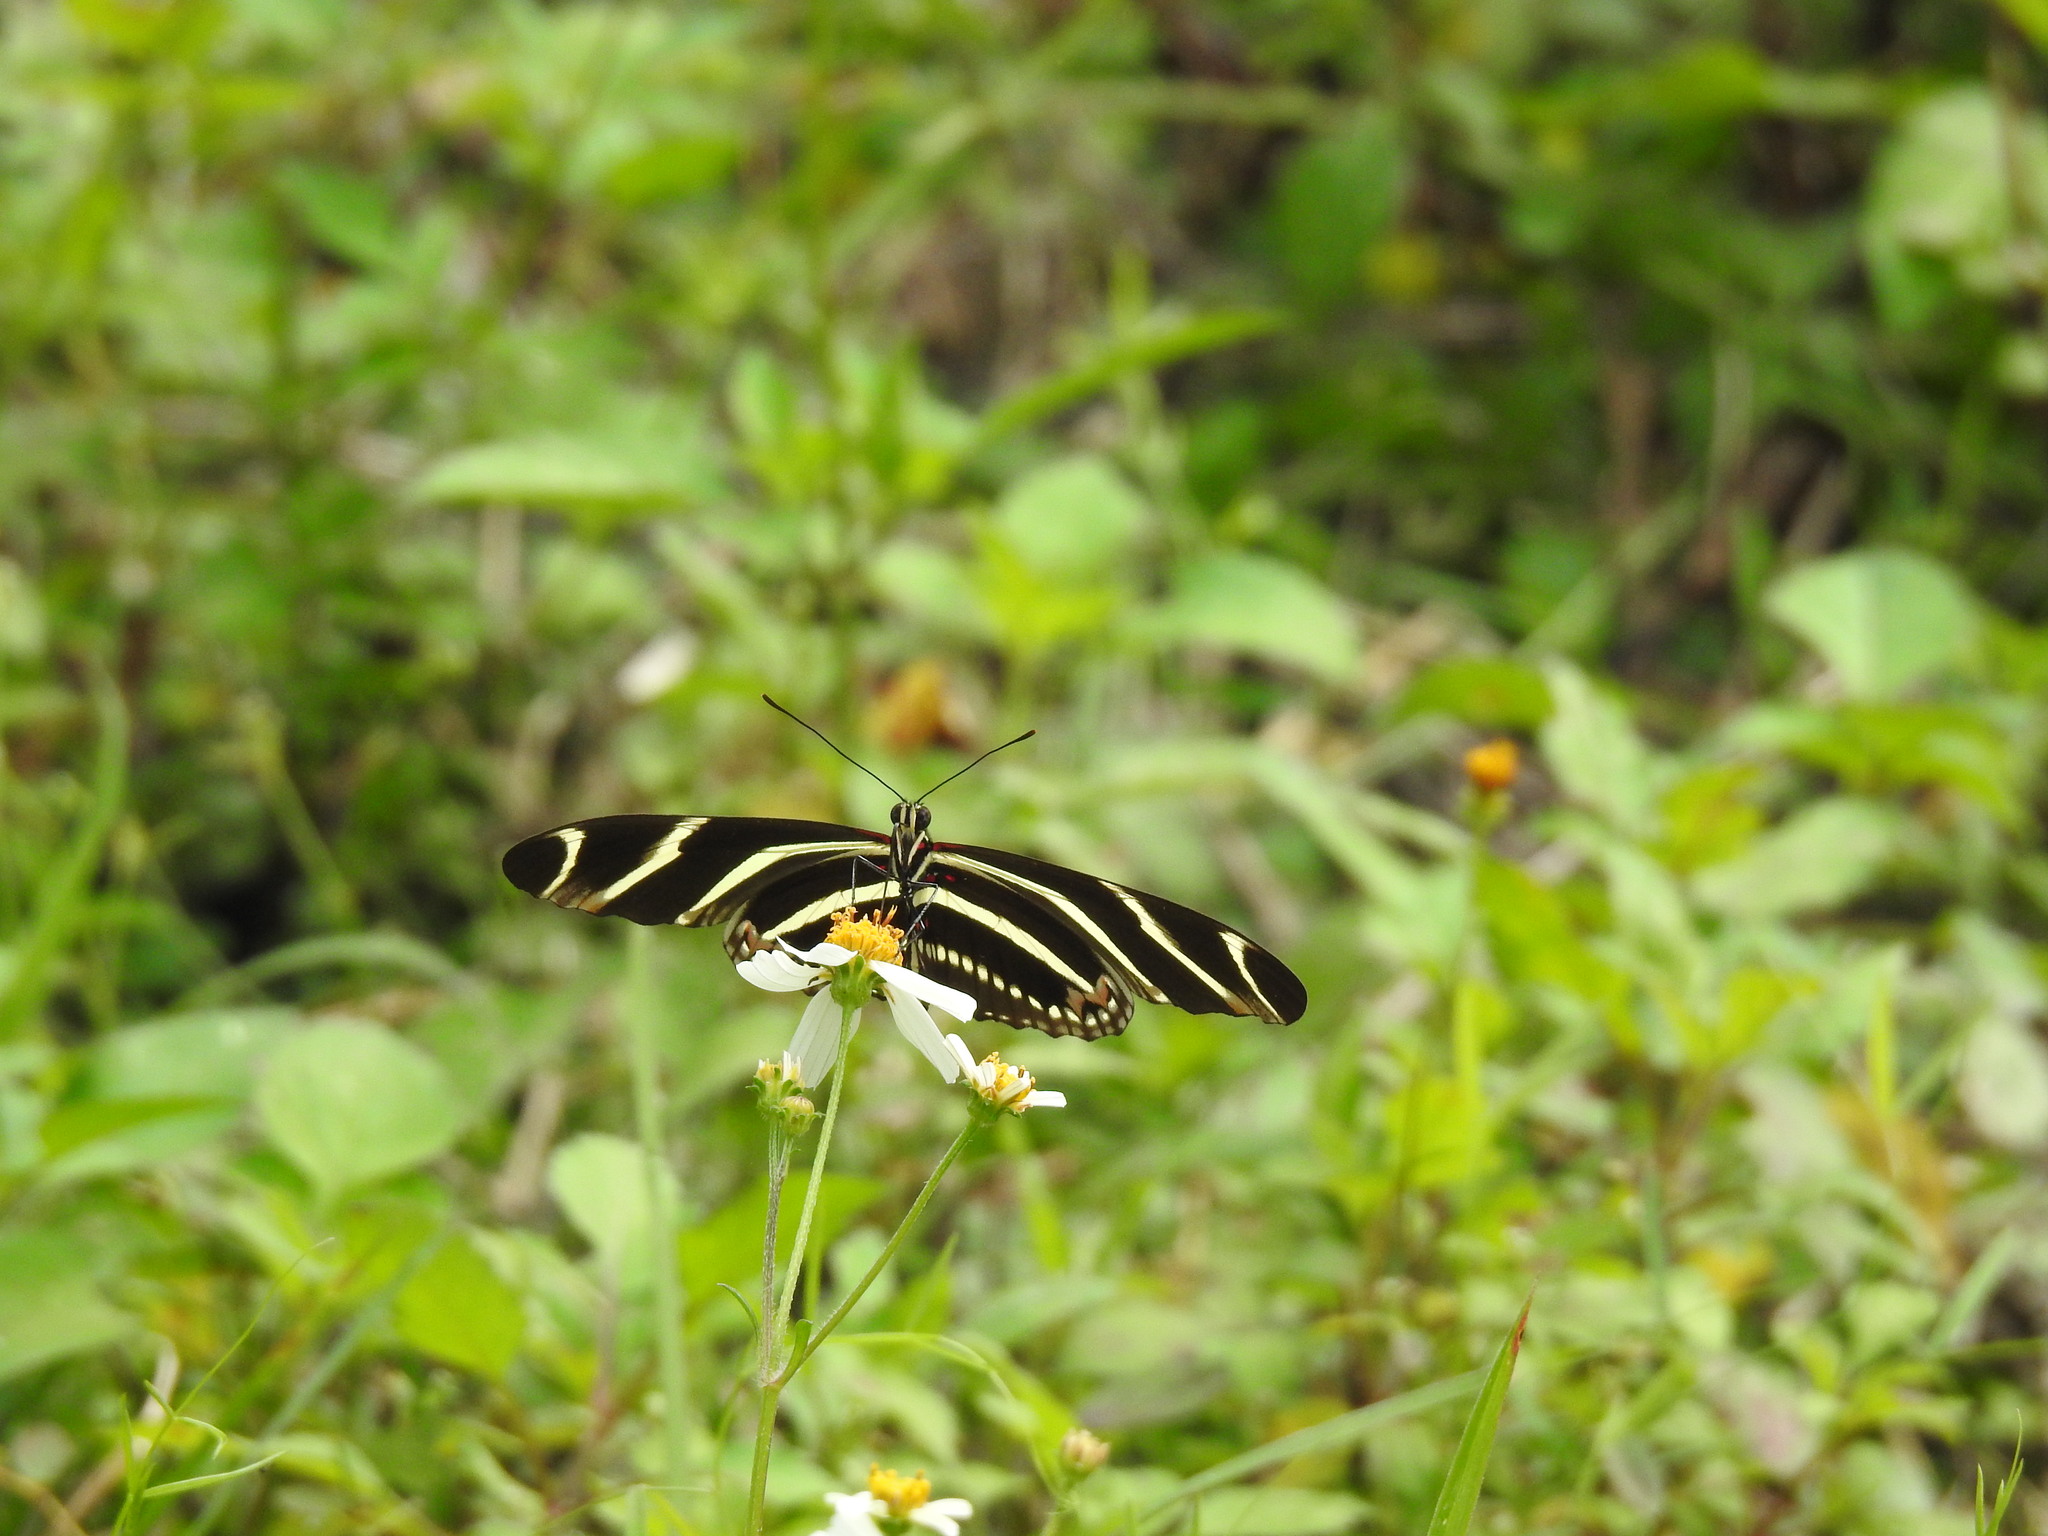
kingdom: Animalia
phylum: Arthropoda
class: Insecta
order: Lepidoptera
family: Nymphalidae
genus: Heliconius
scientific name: Heliconius charithonia
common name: Zebra long wing
